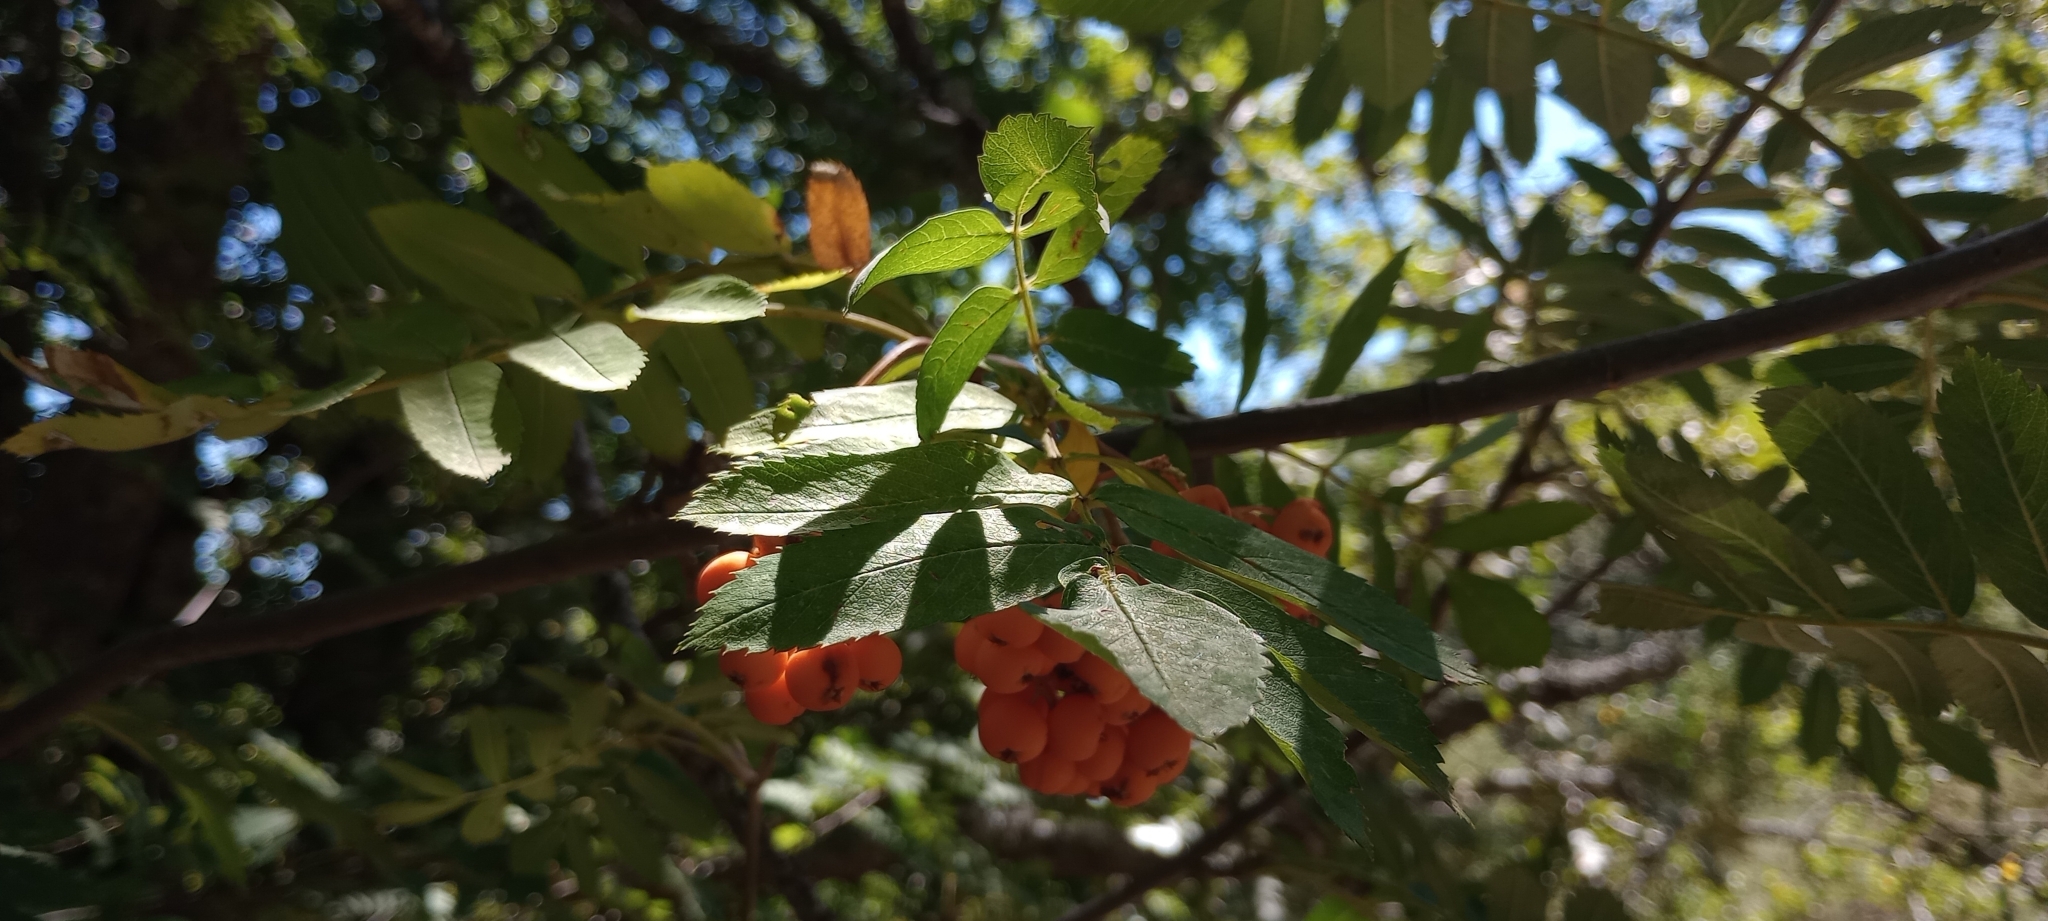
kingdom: Plantae
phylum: Tracheophyta
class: Magnoliopsida
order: Rosales
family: Rosaceae
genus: Sorbus
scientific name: Sorbus aucuparia
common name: Rowan
